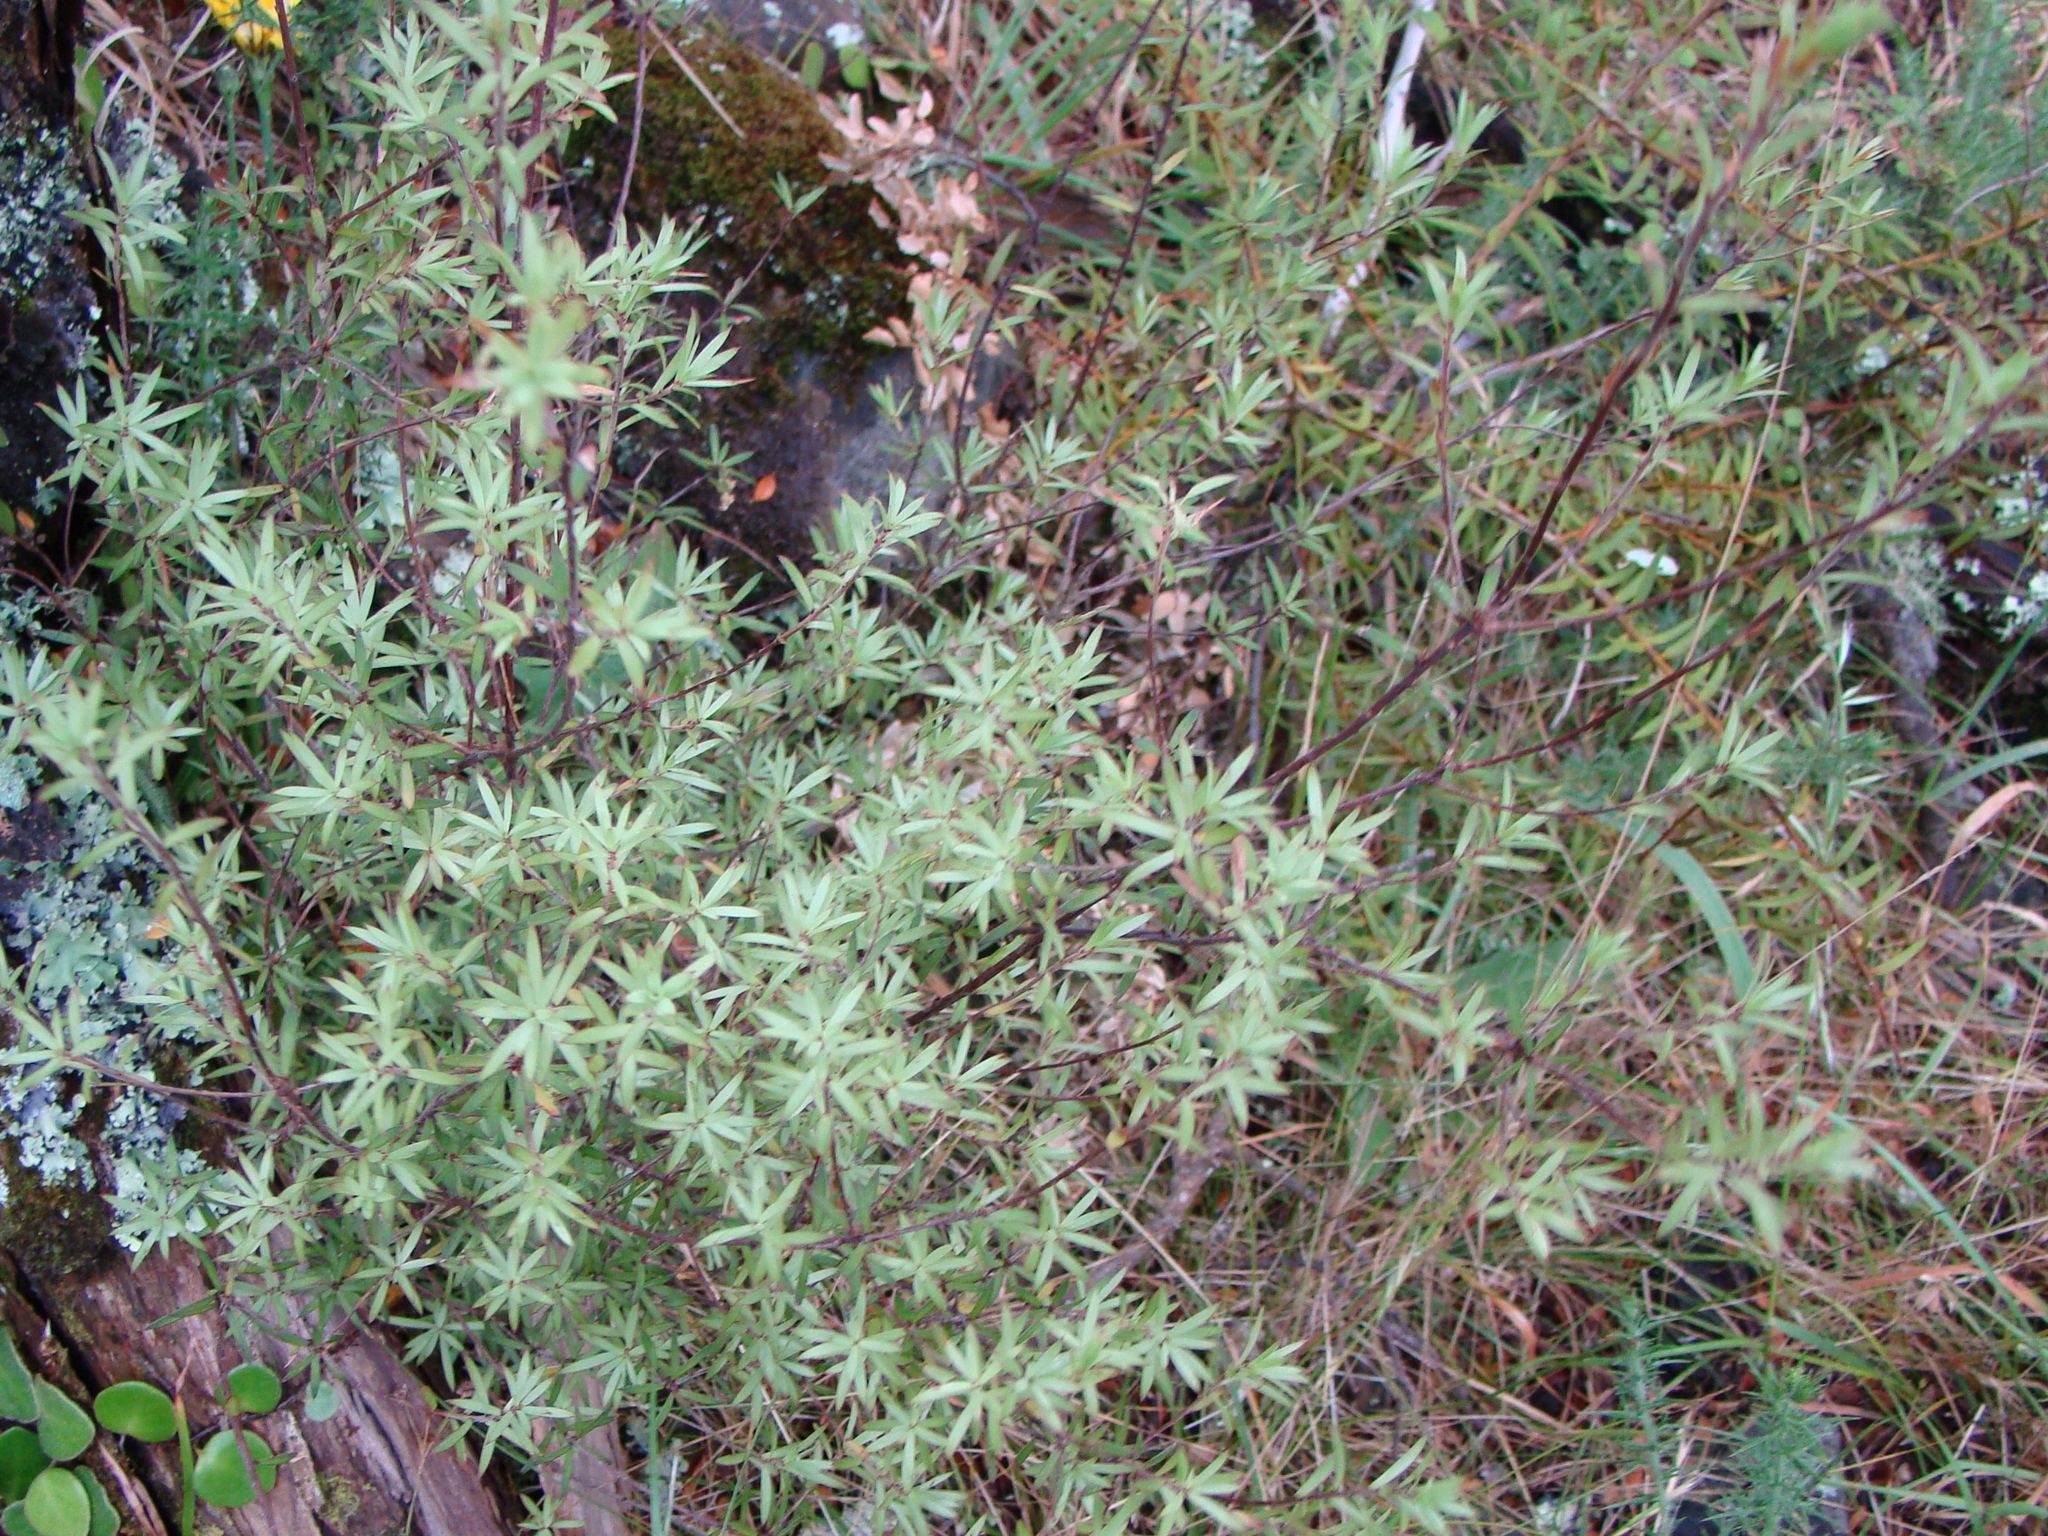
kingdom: Plantae
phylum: Tracheophyta
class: Magnoliopsida
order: Ericales
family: Ericaceae
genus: Leucopogon
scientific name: Leucopogon fasciculatus
